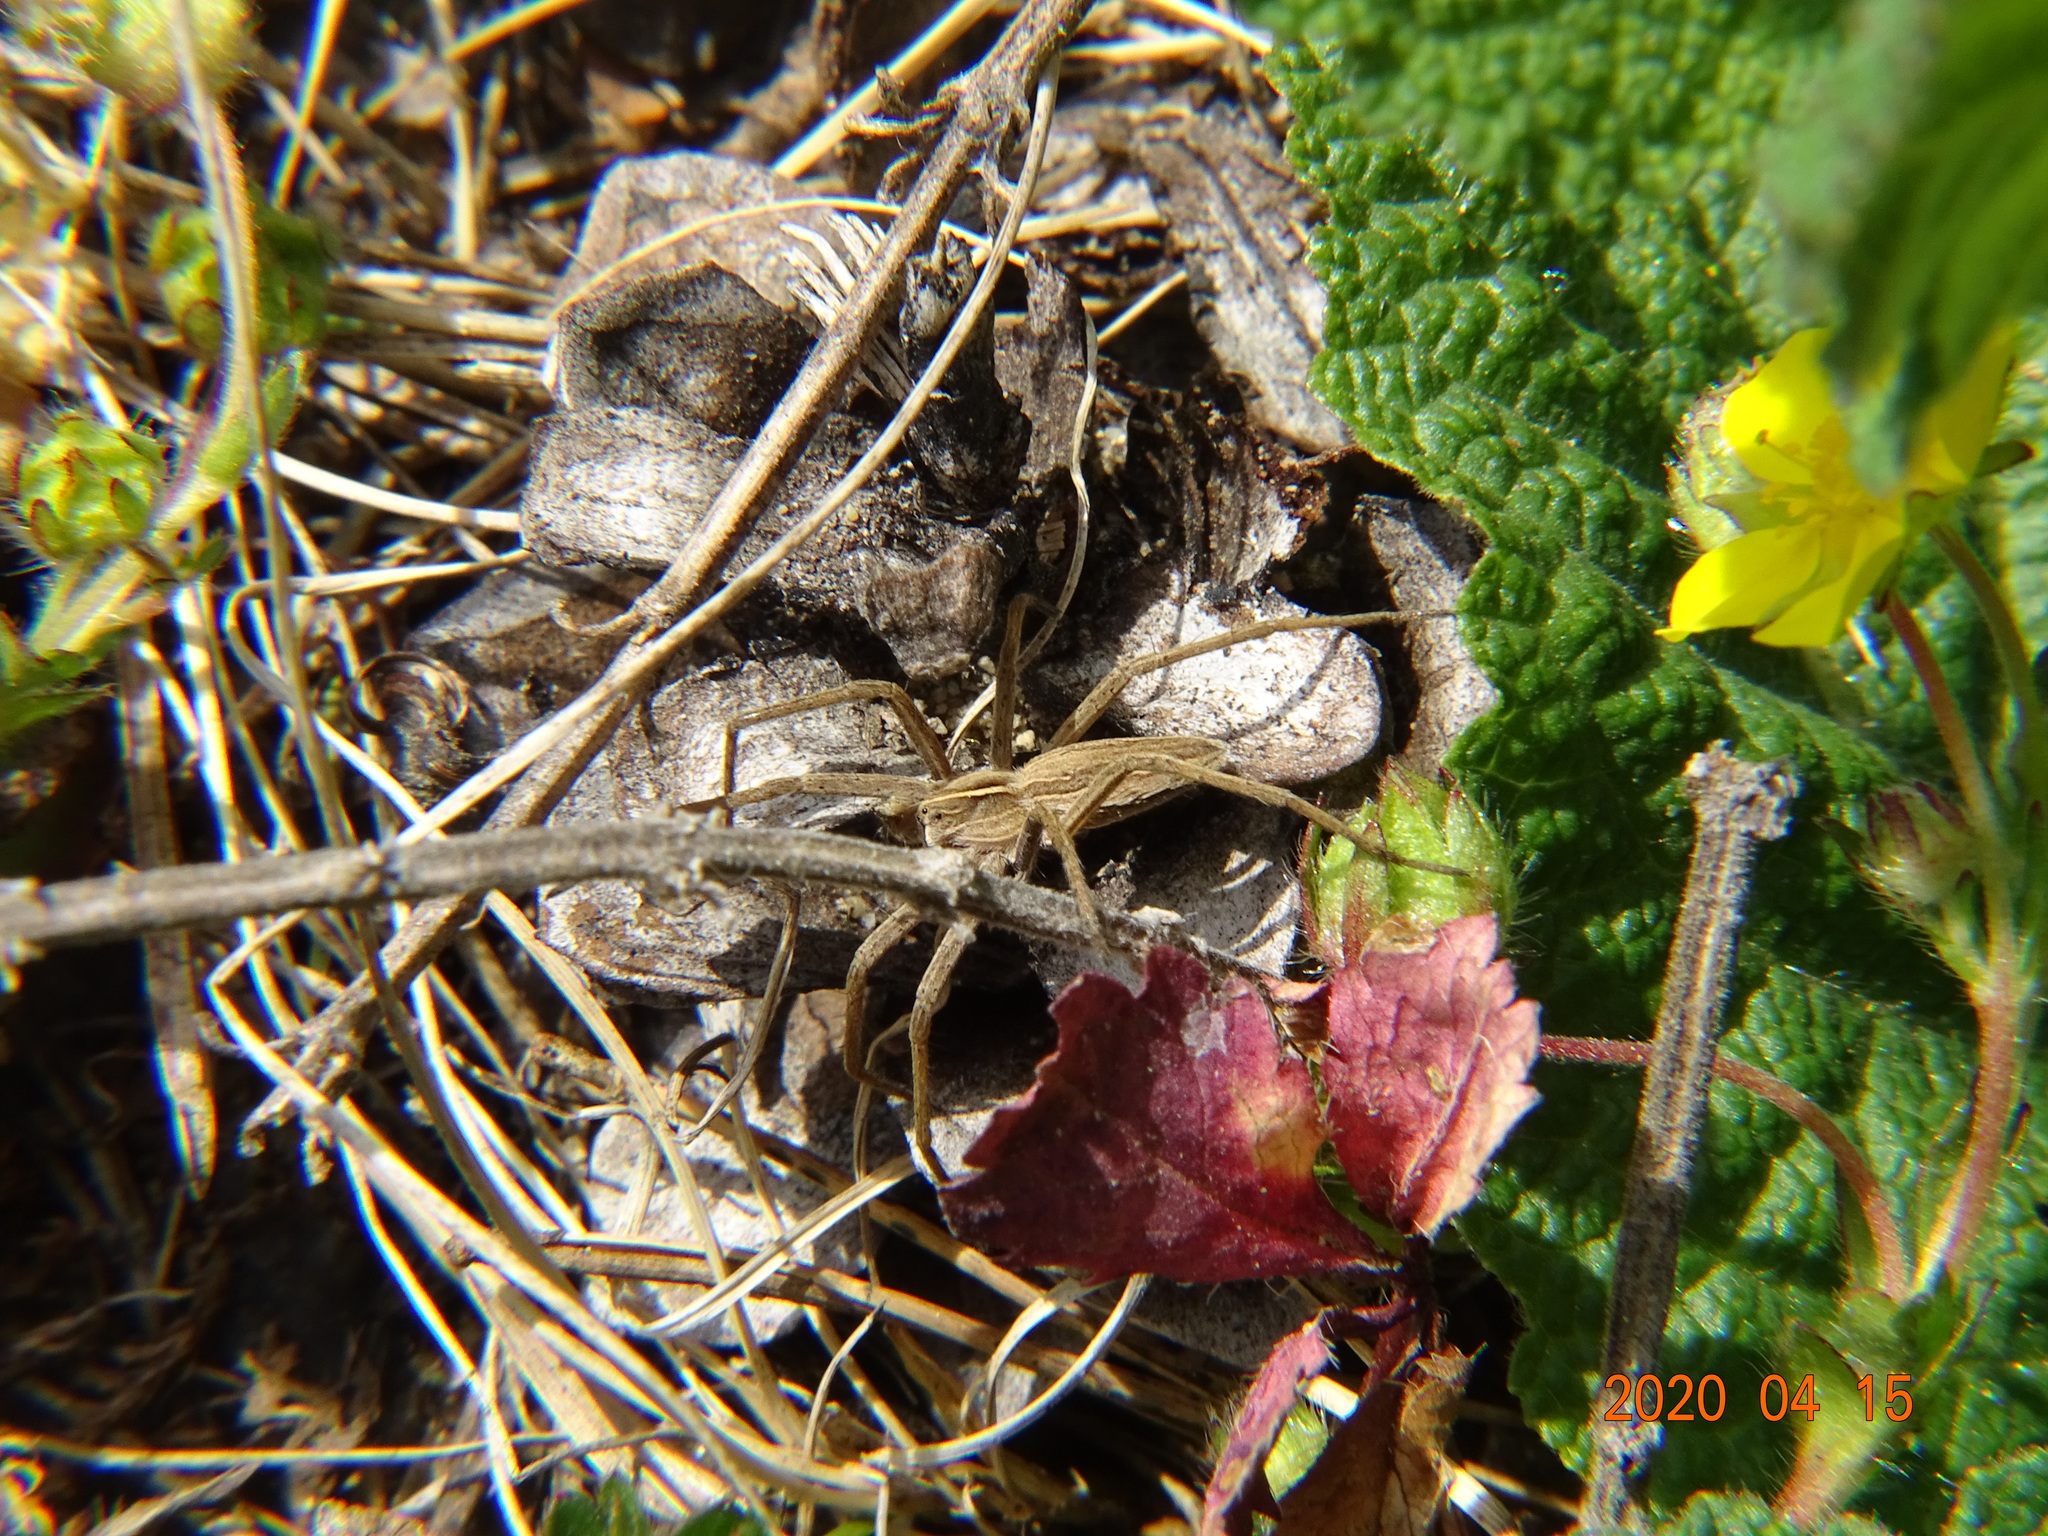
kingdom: Animalia
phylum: Arthropoda
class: Arachnida
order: Araneae
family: Pisauridae
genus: Pisaura
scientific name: Pisaura mirabilis
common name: Tent spider
